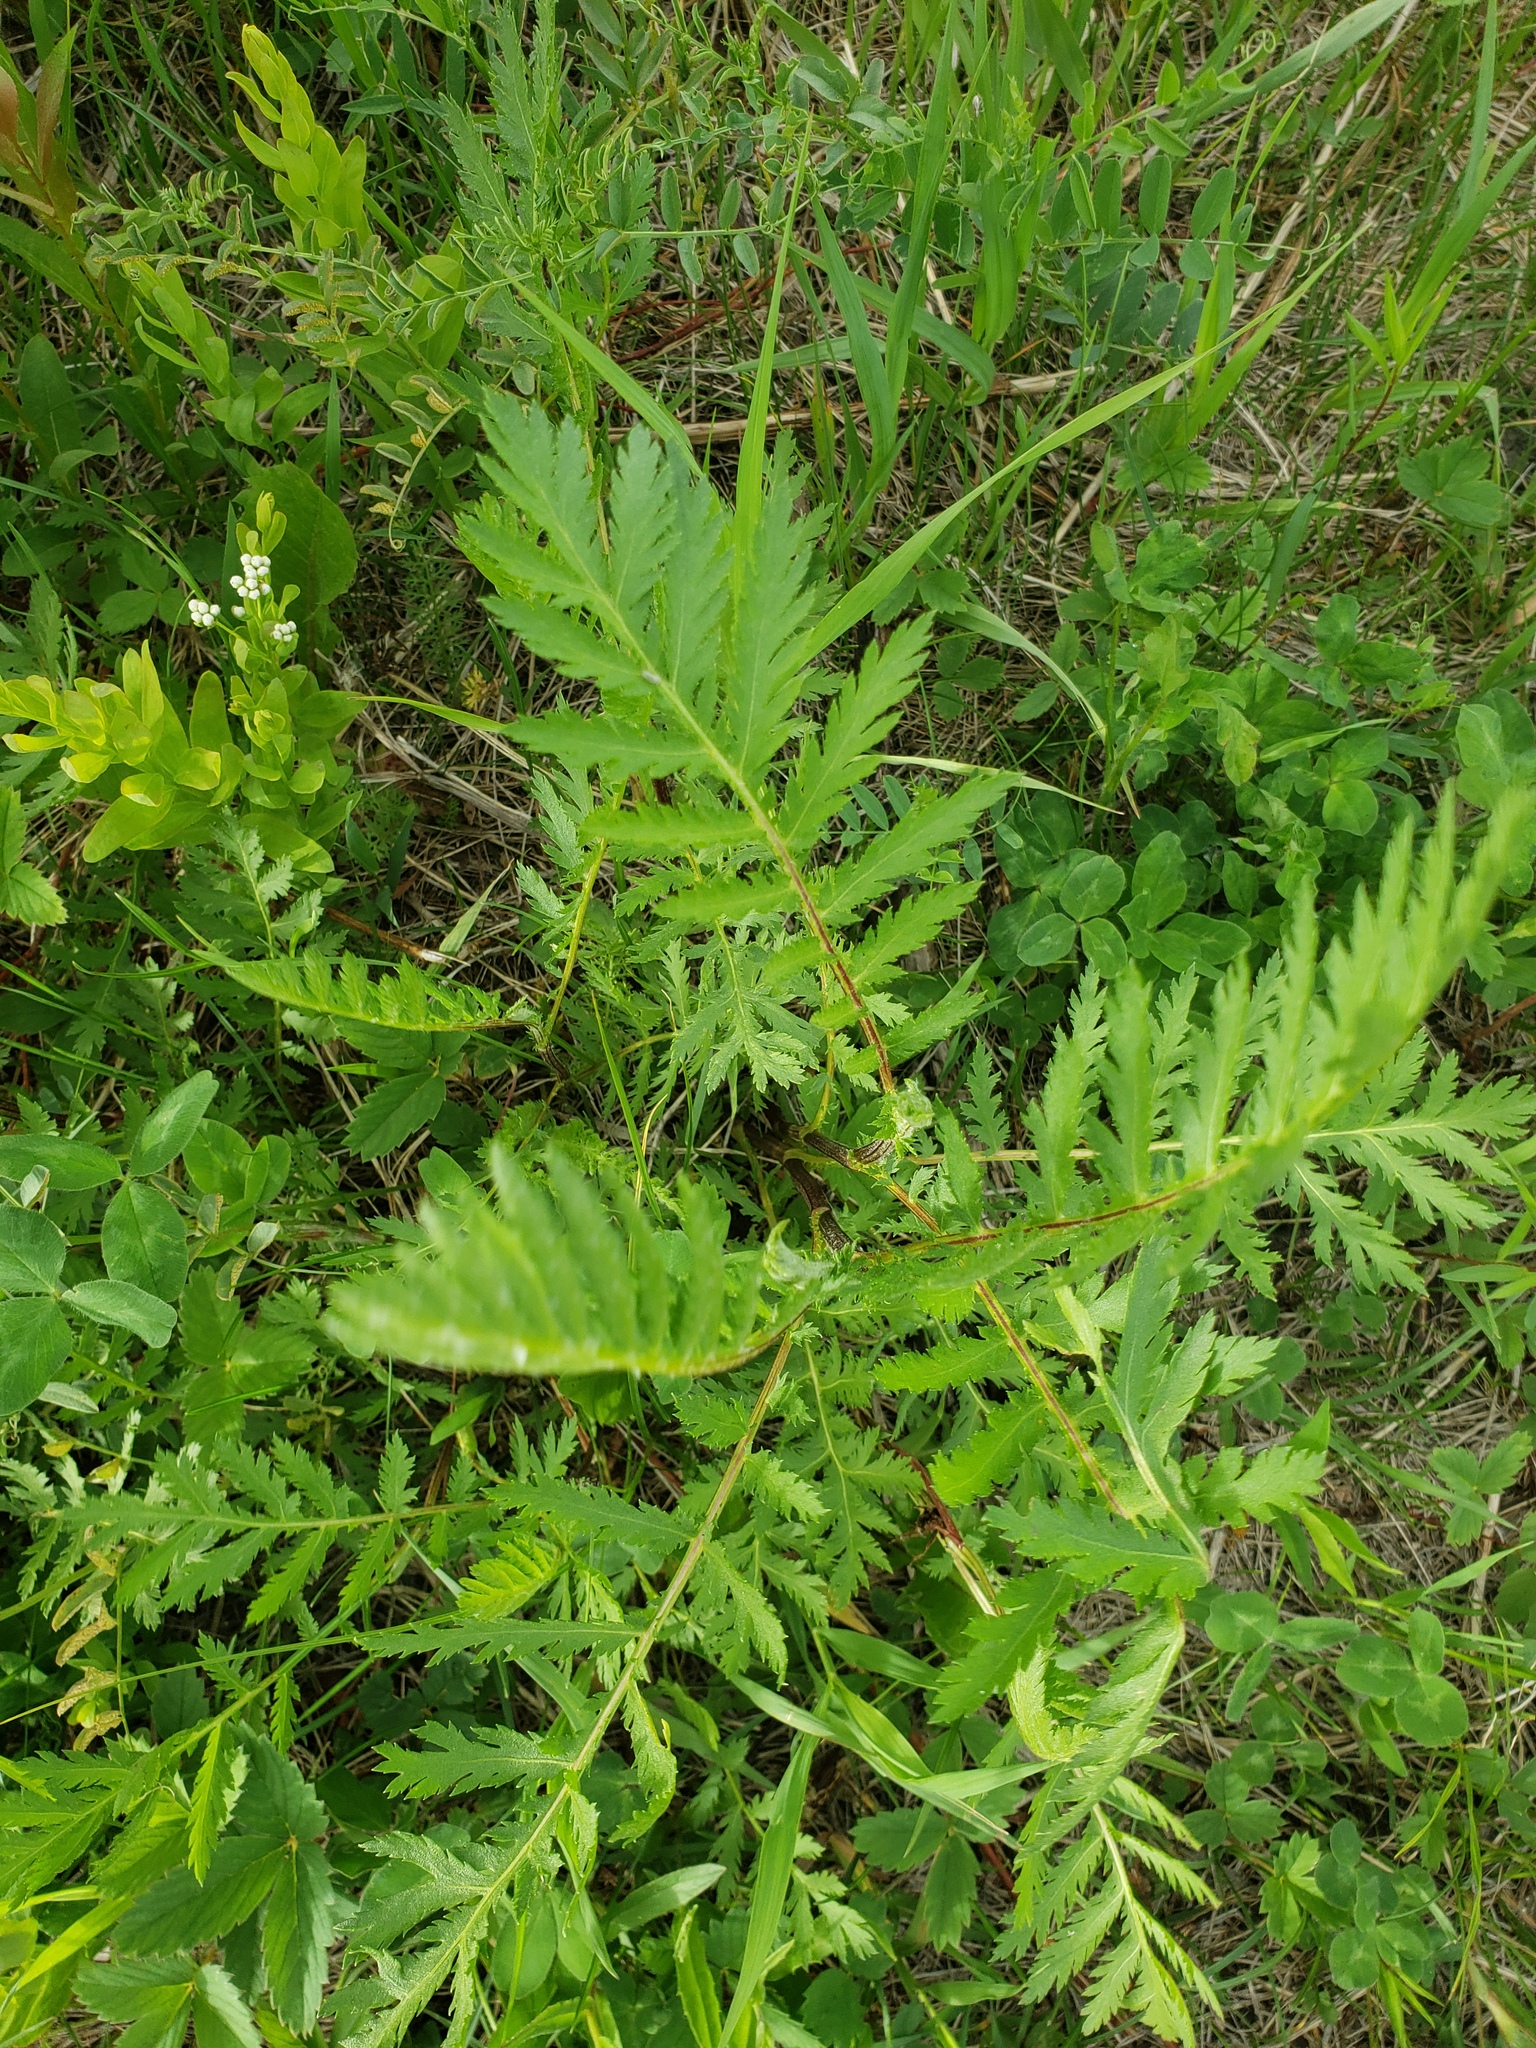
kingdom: Plantae
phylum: Tracheophyta
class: Magnoliopsida
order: Asterales
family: Asteraceae
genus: Tanacetum
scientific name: Tanacetum vulgare
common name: Common tansy
